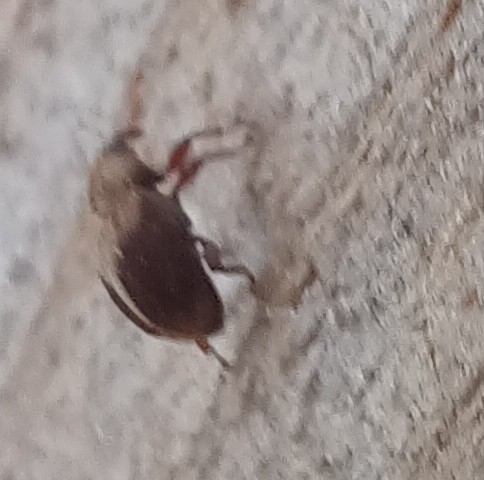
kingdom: Animalia
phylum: Arthropoda
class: Insecta
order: Coleoptera
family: Curculionidae
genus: Lignyodes
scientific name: Lignyodes enucleator
